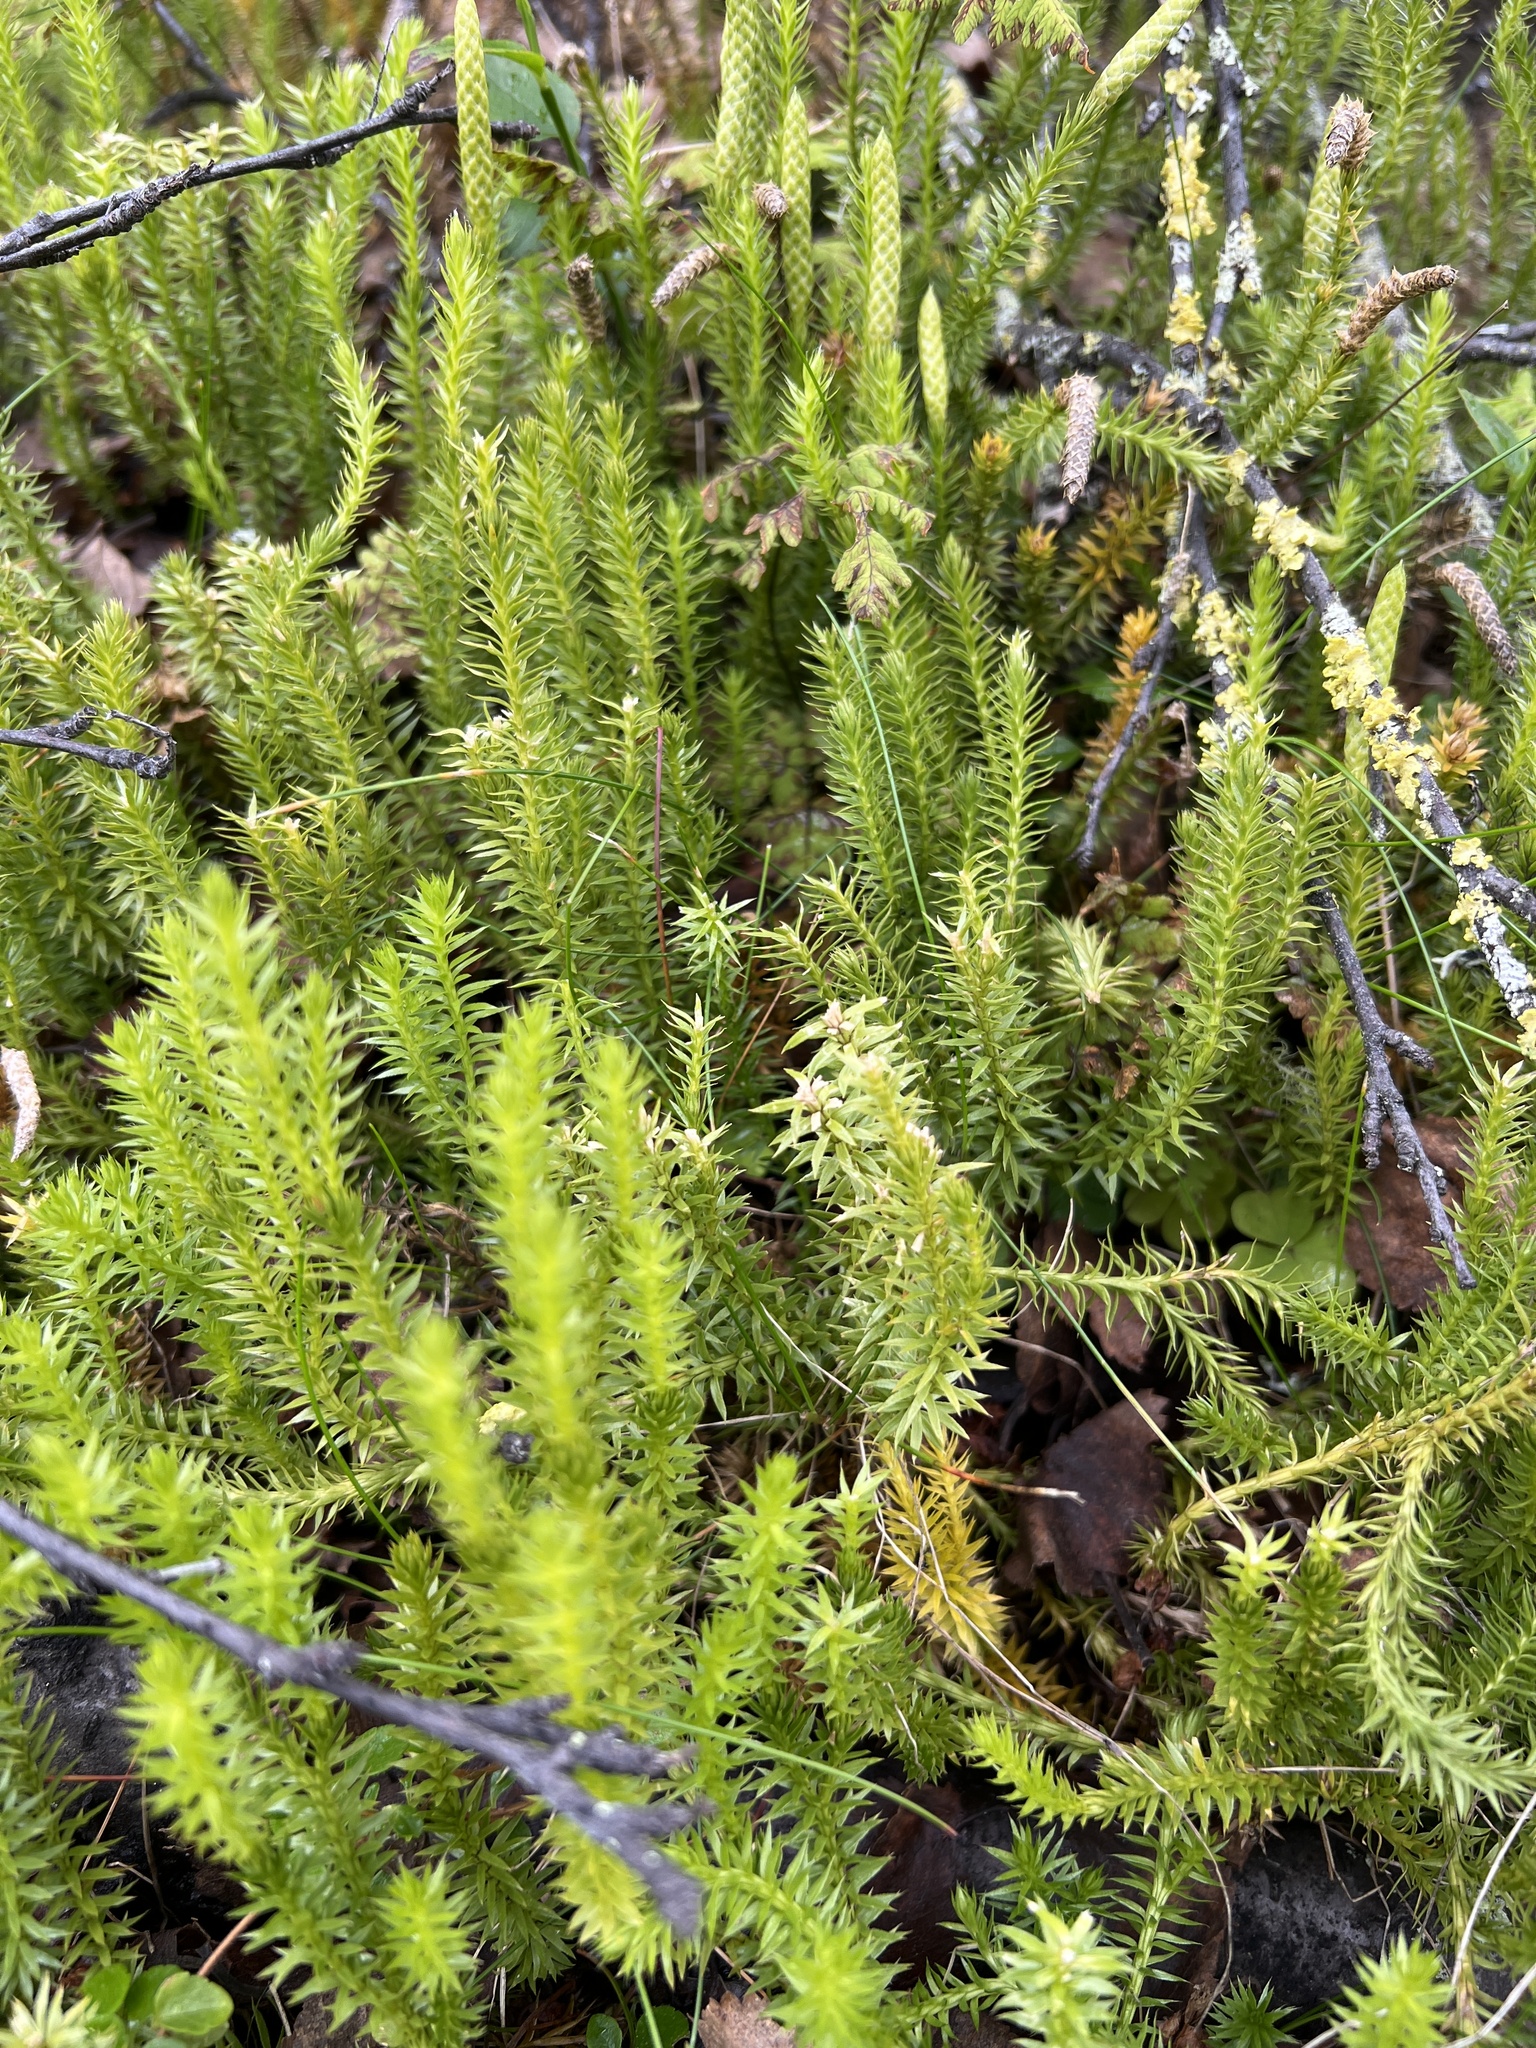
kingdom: Plantae
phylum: Tracheophyta
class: Lycopodiopsida
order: Lycopodiales
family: Lycopodiaceae
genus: Spinulum
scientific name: Spinulum annotinum
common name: Interrupted club-moss
